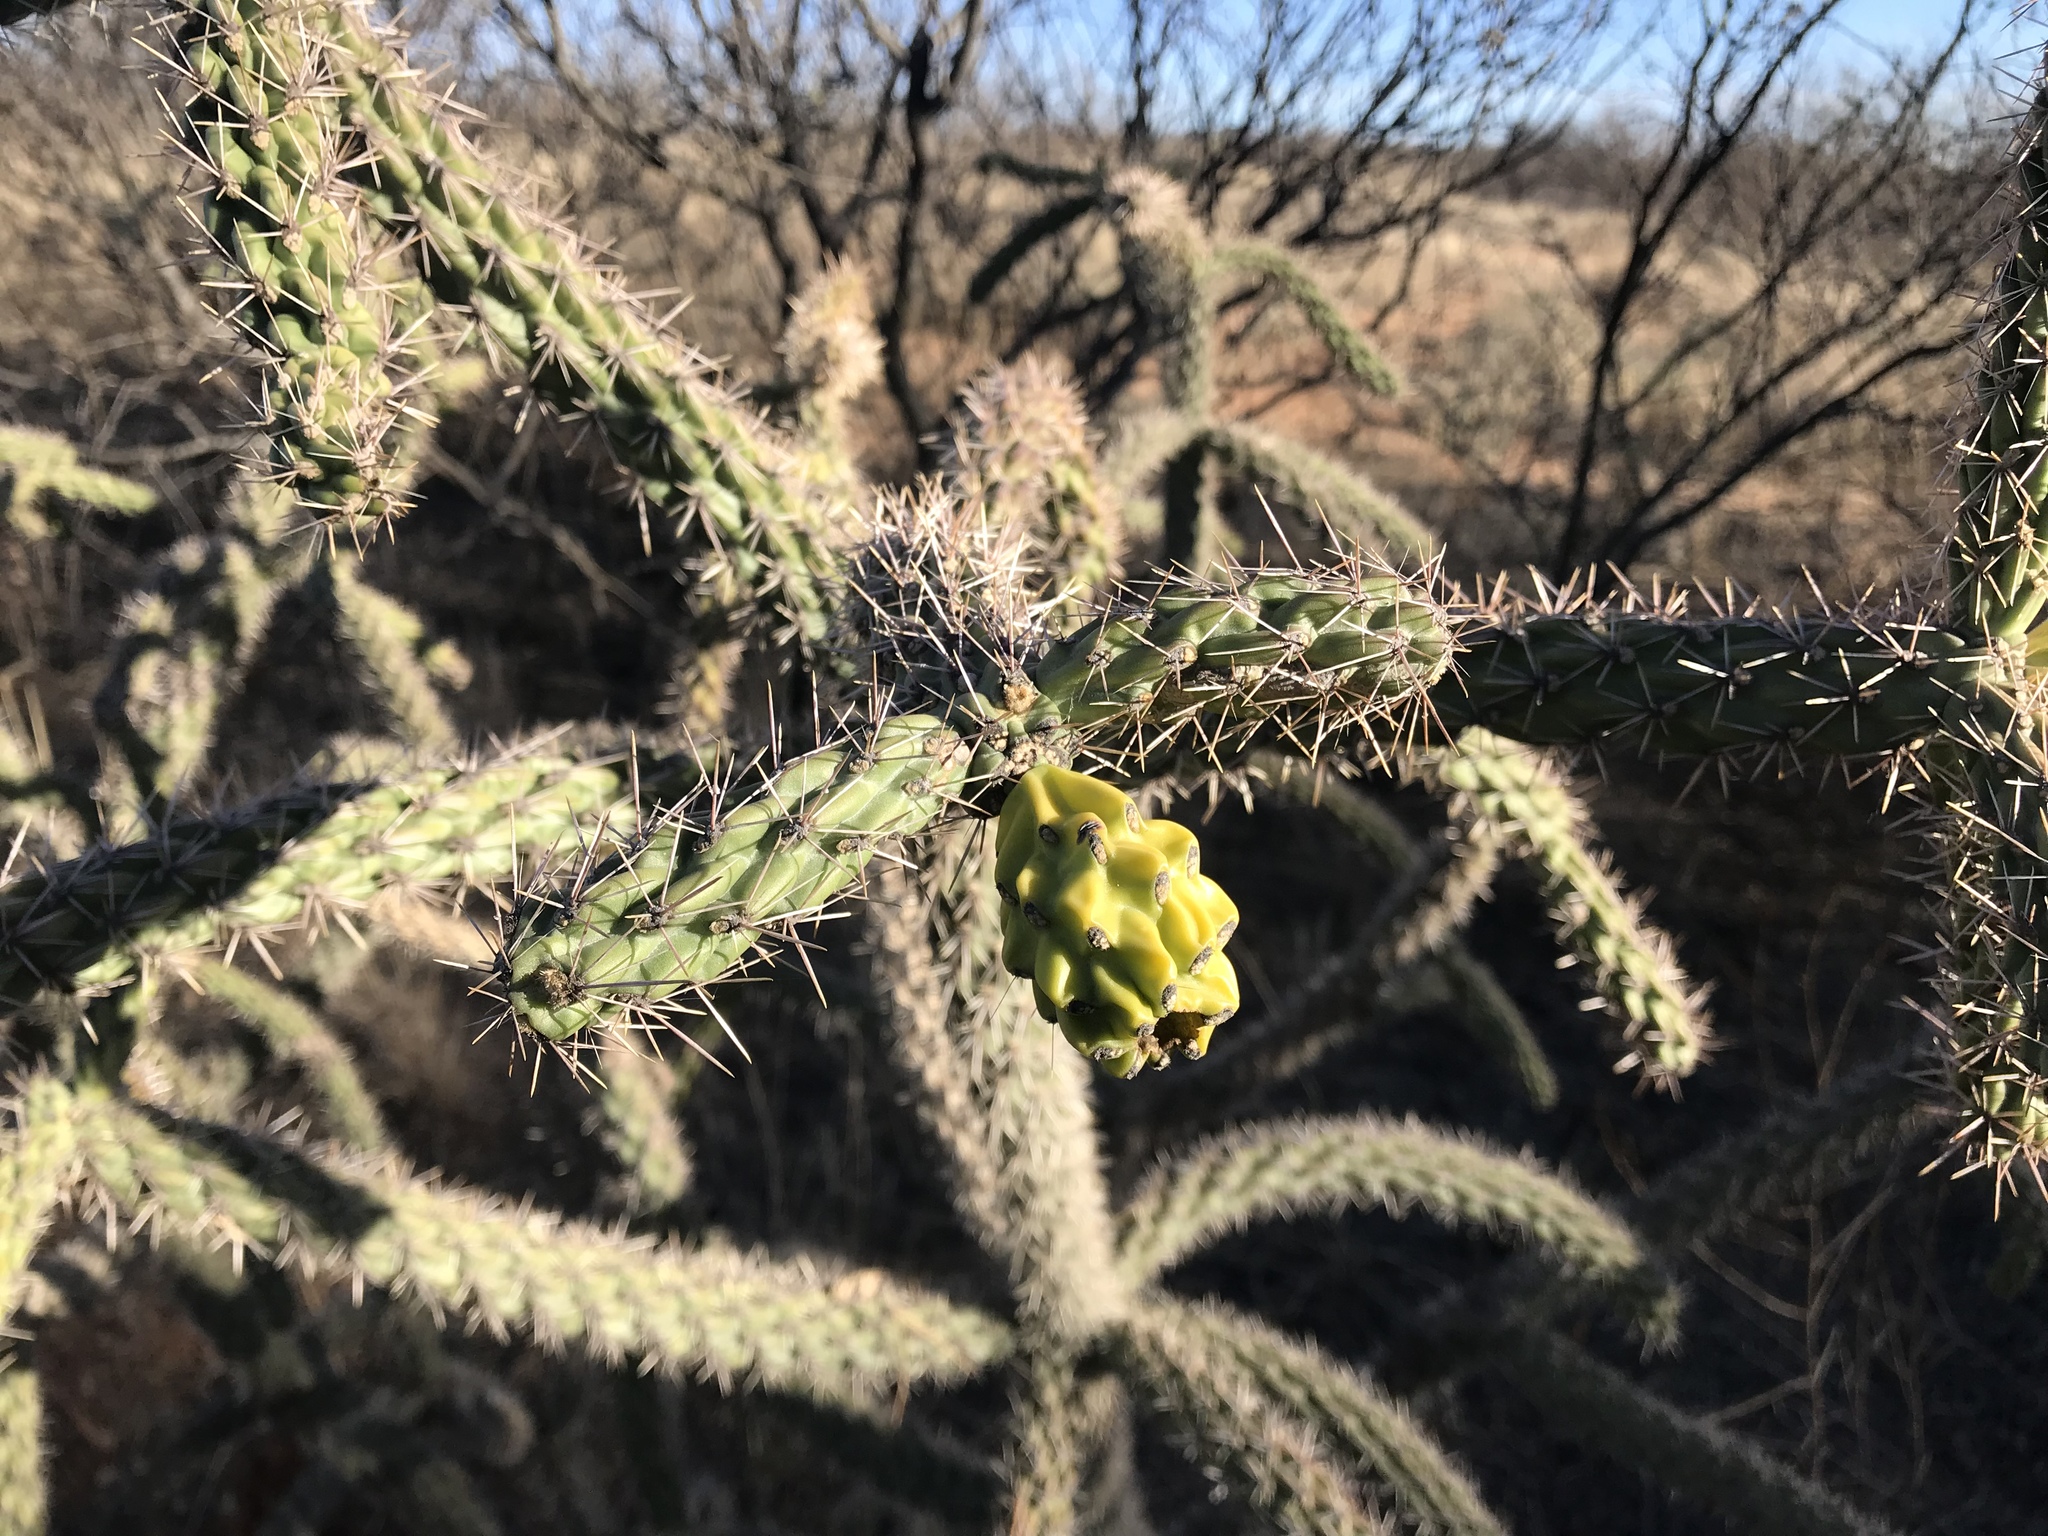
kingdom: Plantae
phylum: Tracheophyta
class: Magnoliopsida
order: Caryophyllales
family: Cactaceae
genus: Cylindropuntia
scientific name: Cylindropuntia imbricata
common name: Candelabrum cactus
